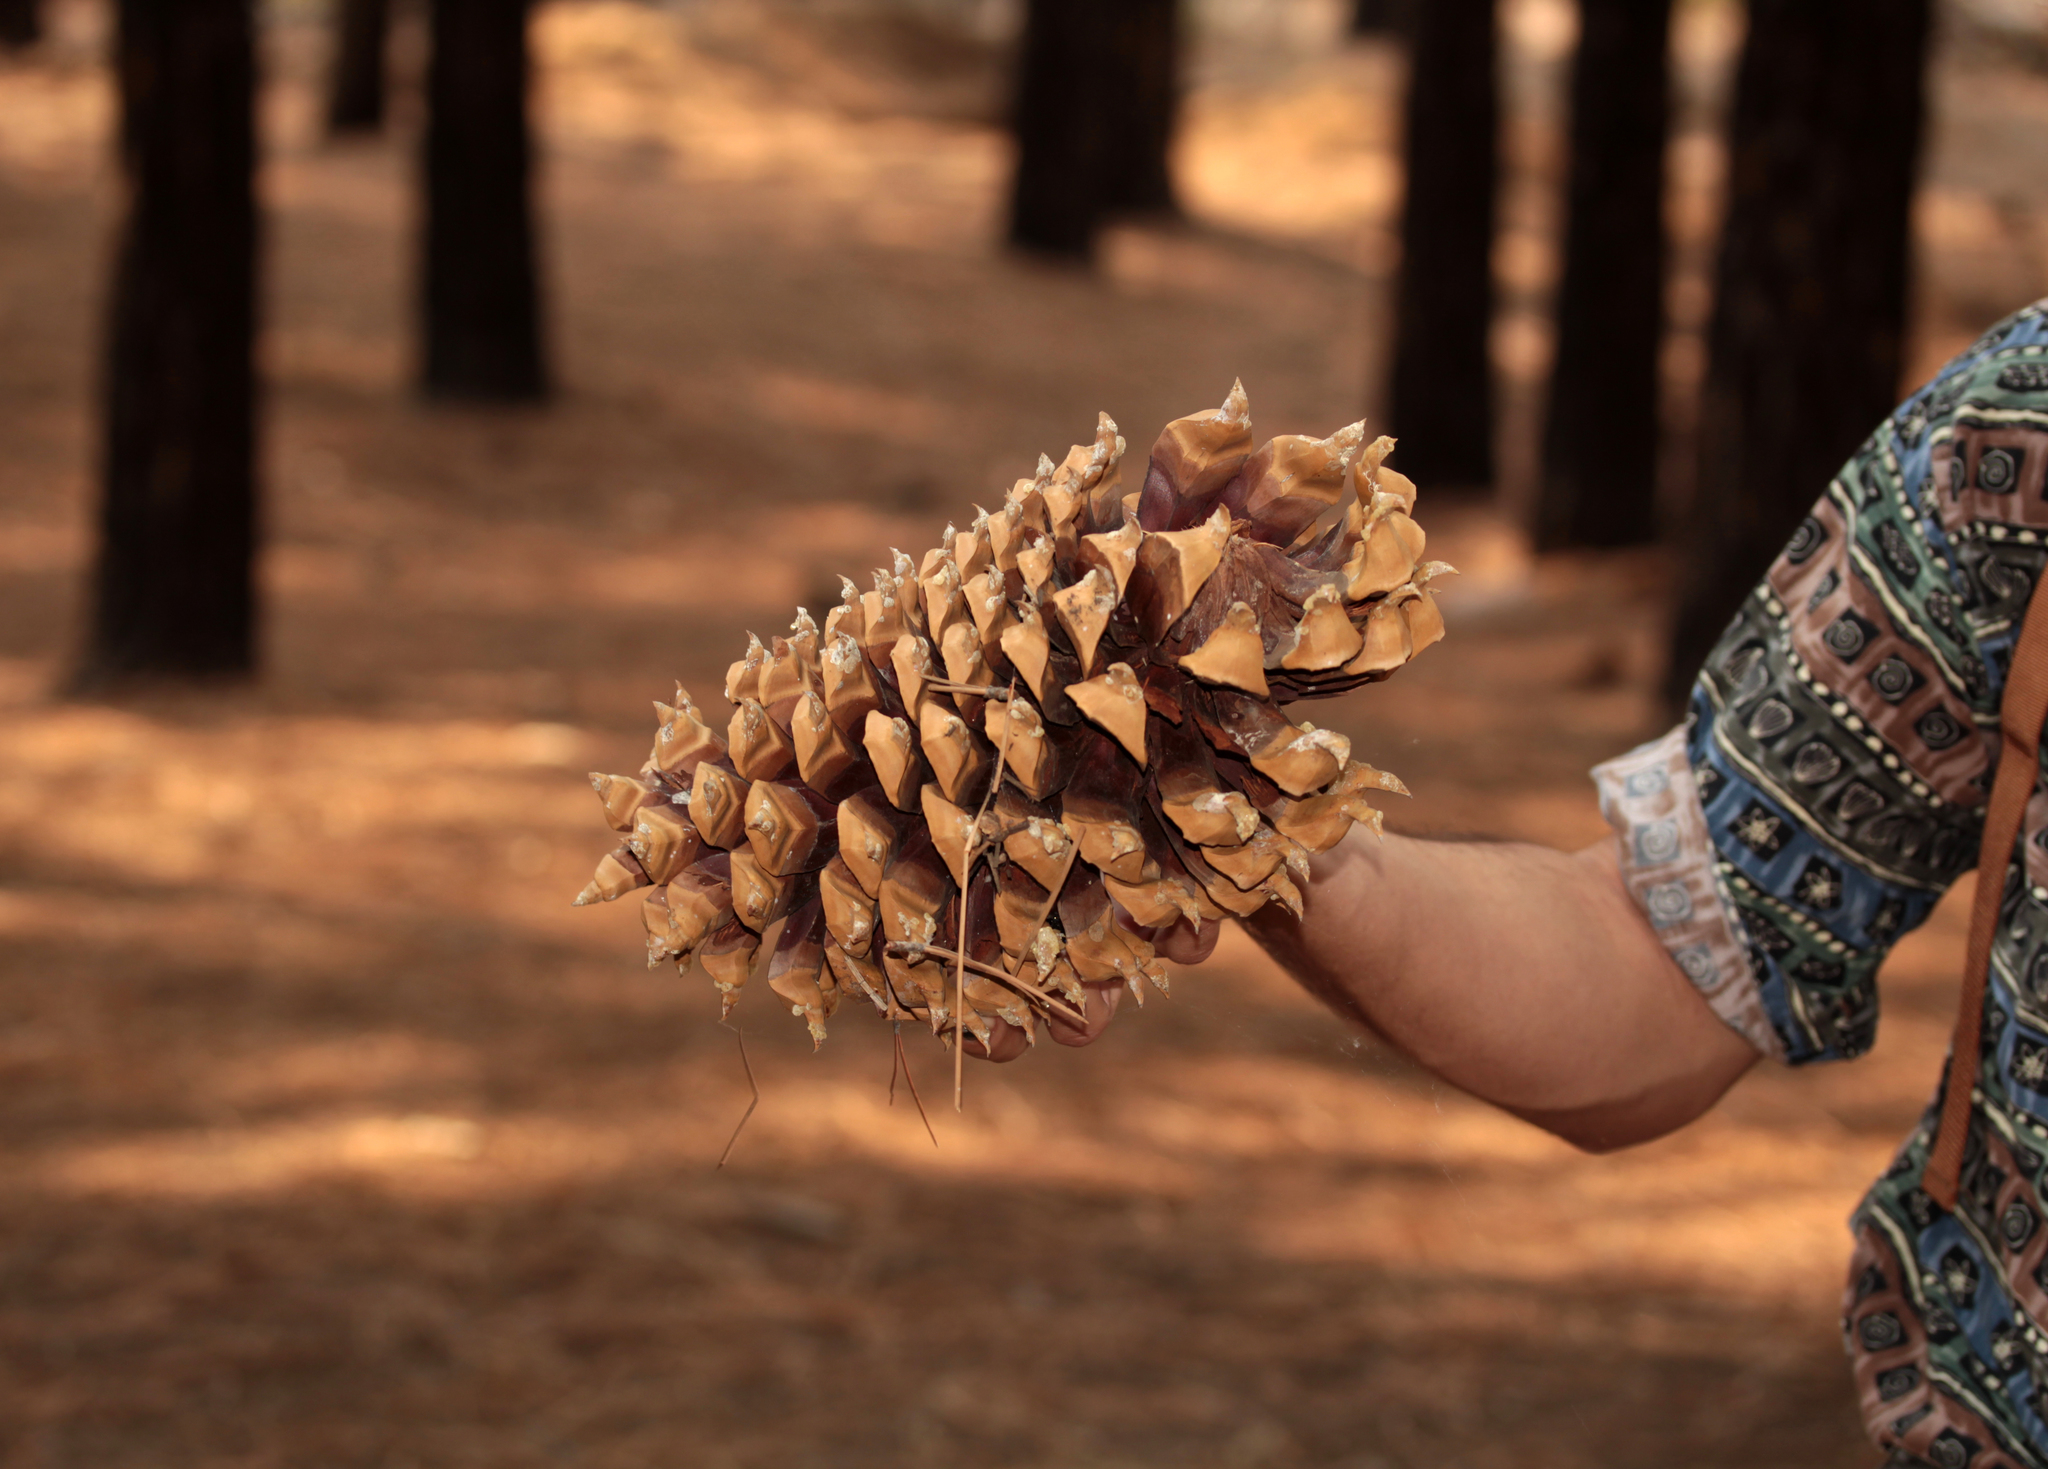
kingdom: Plantae
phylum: Tracheophyta
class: Pinopsida
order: Pinales
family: Pinaceae
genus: Pinus
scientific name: Pinus coulteri
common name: Coulter pine
